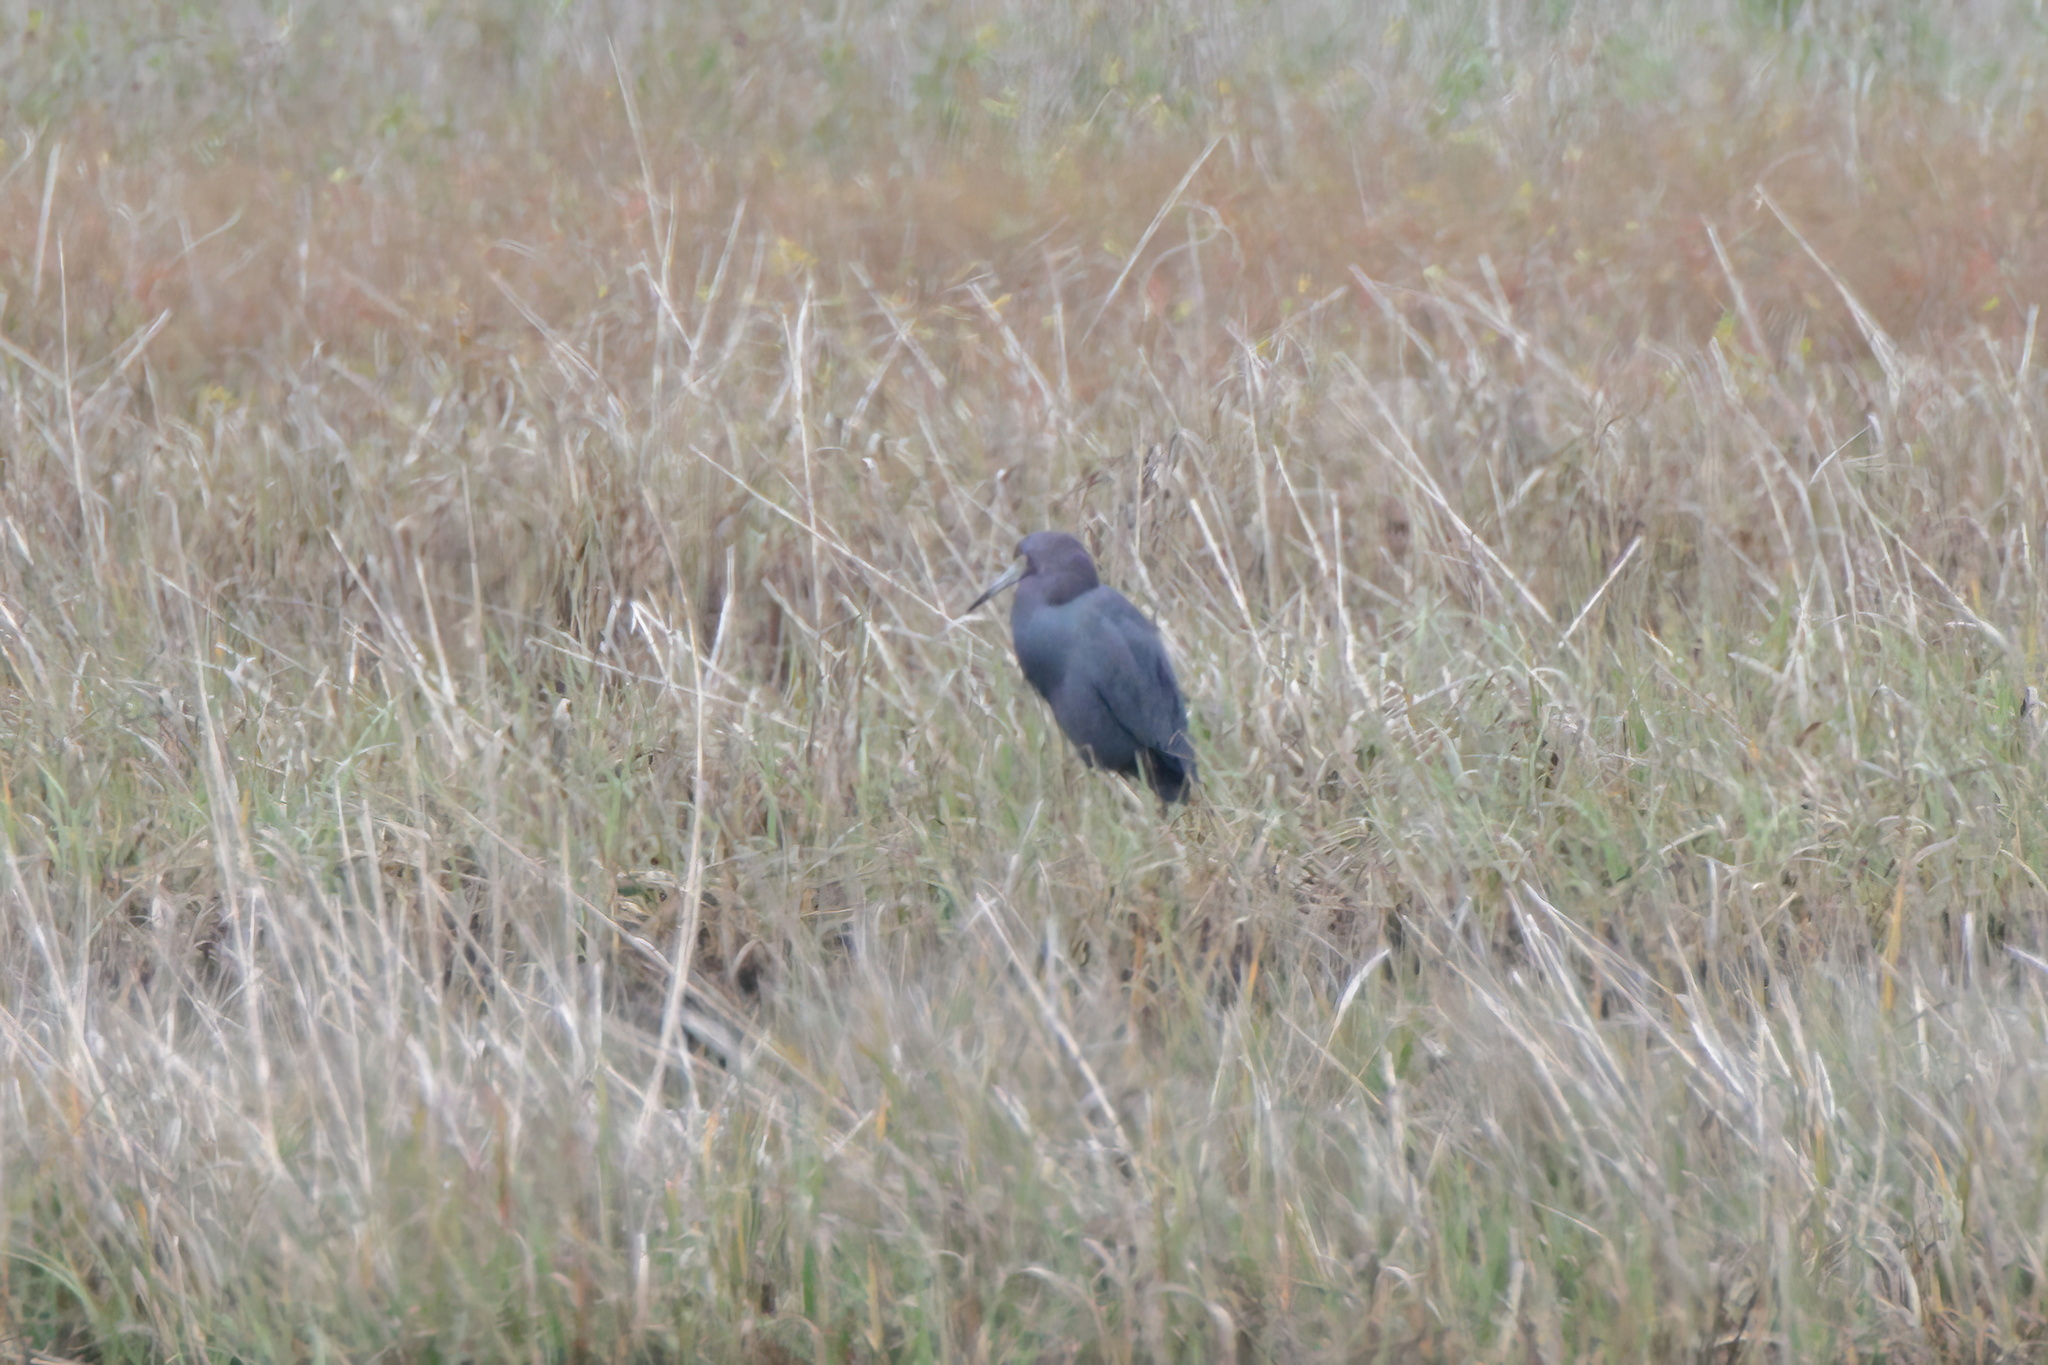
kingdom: Animalia
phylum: Chordata
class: Aves
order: Pelecaniformes
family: Ardeidae
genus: Egretta
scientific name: Egretta caerulea
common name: Little blue heron
